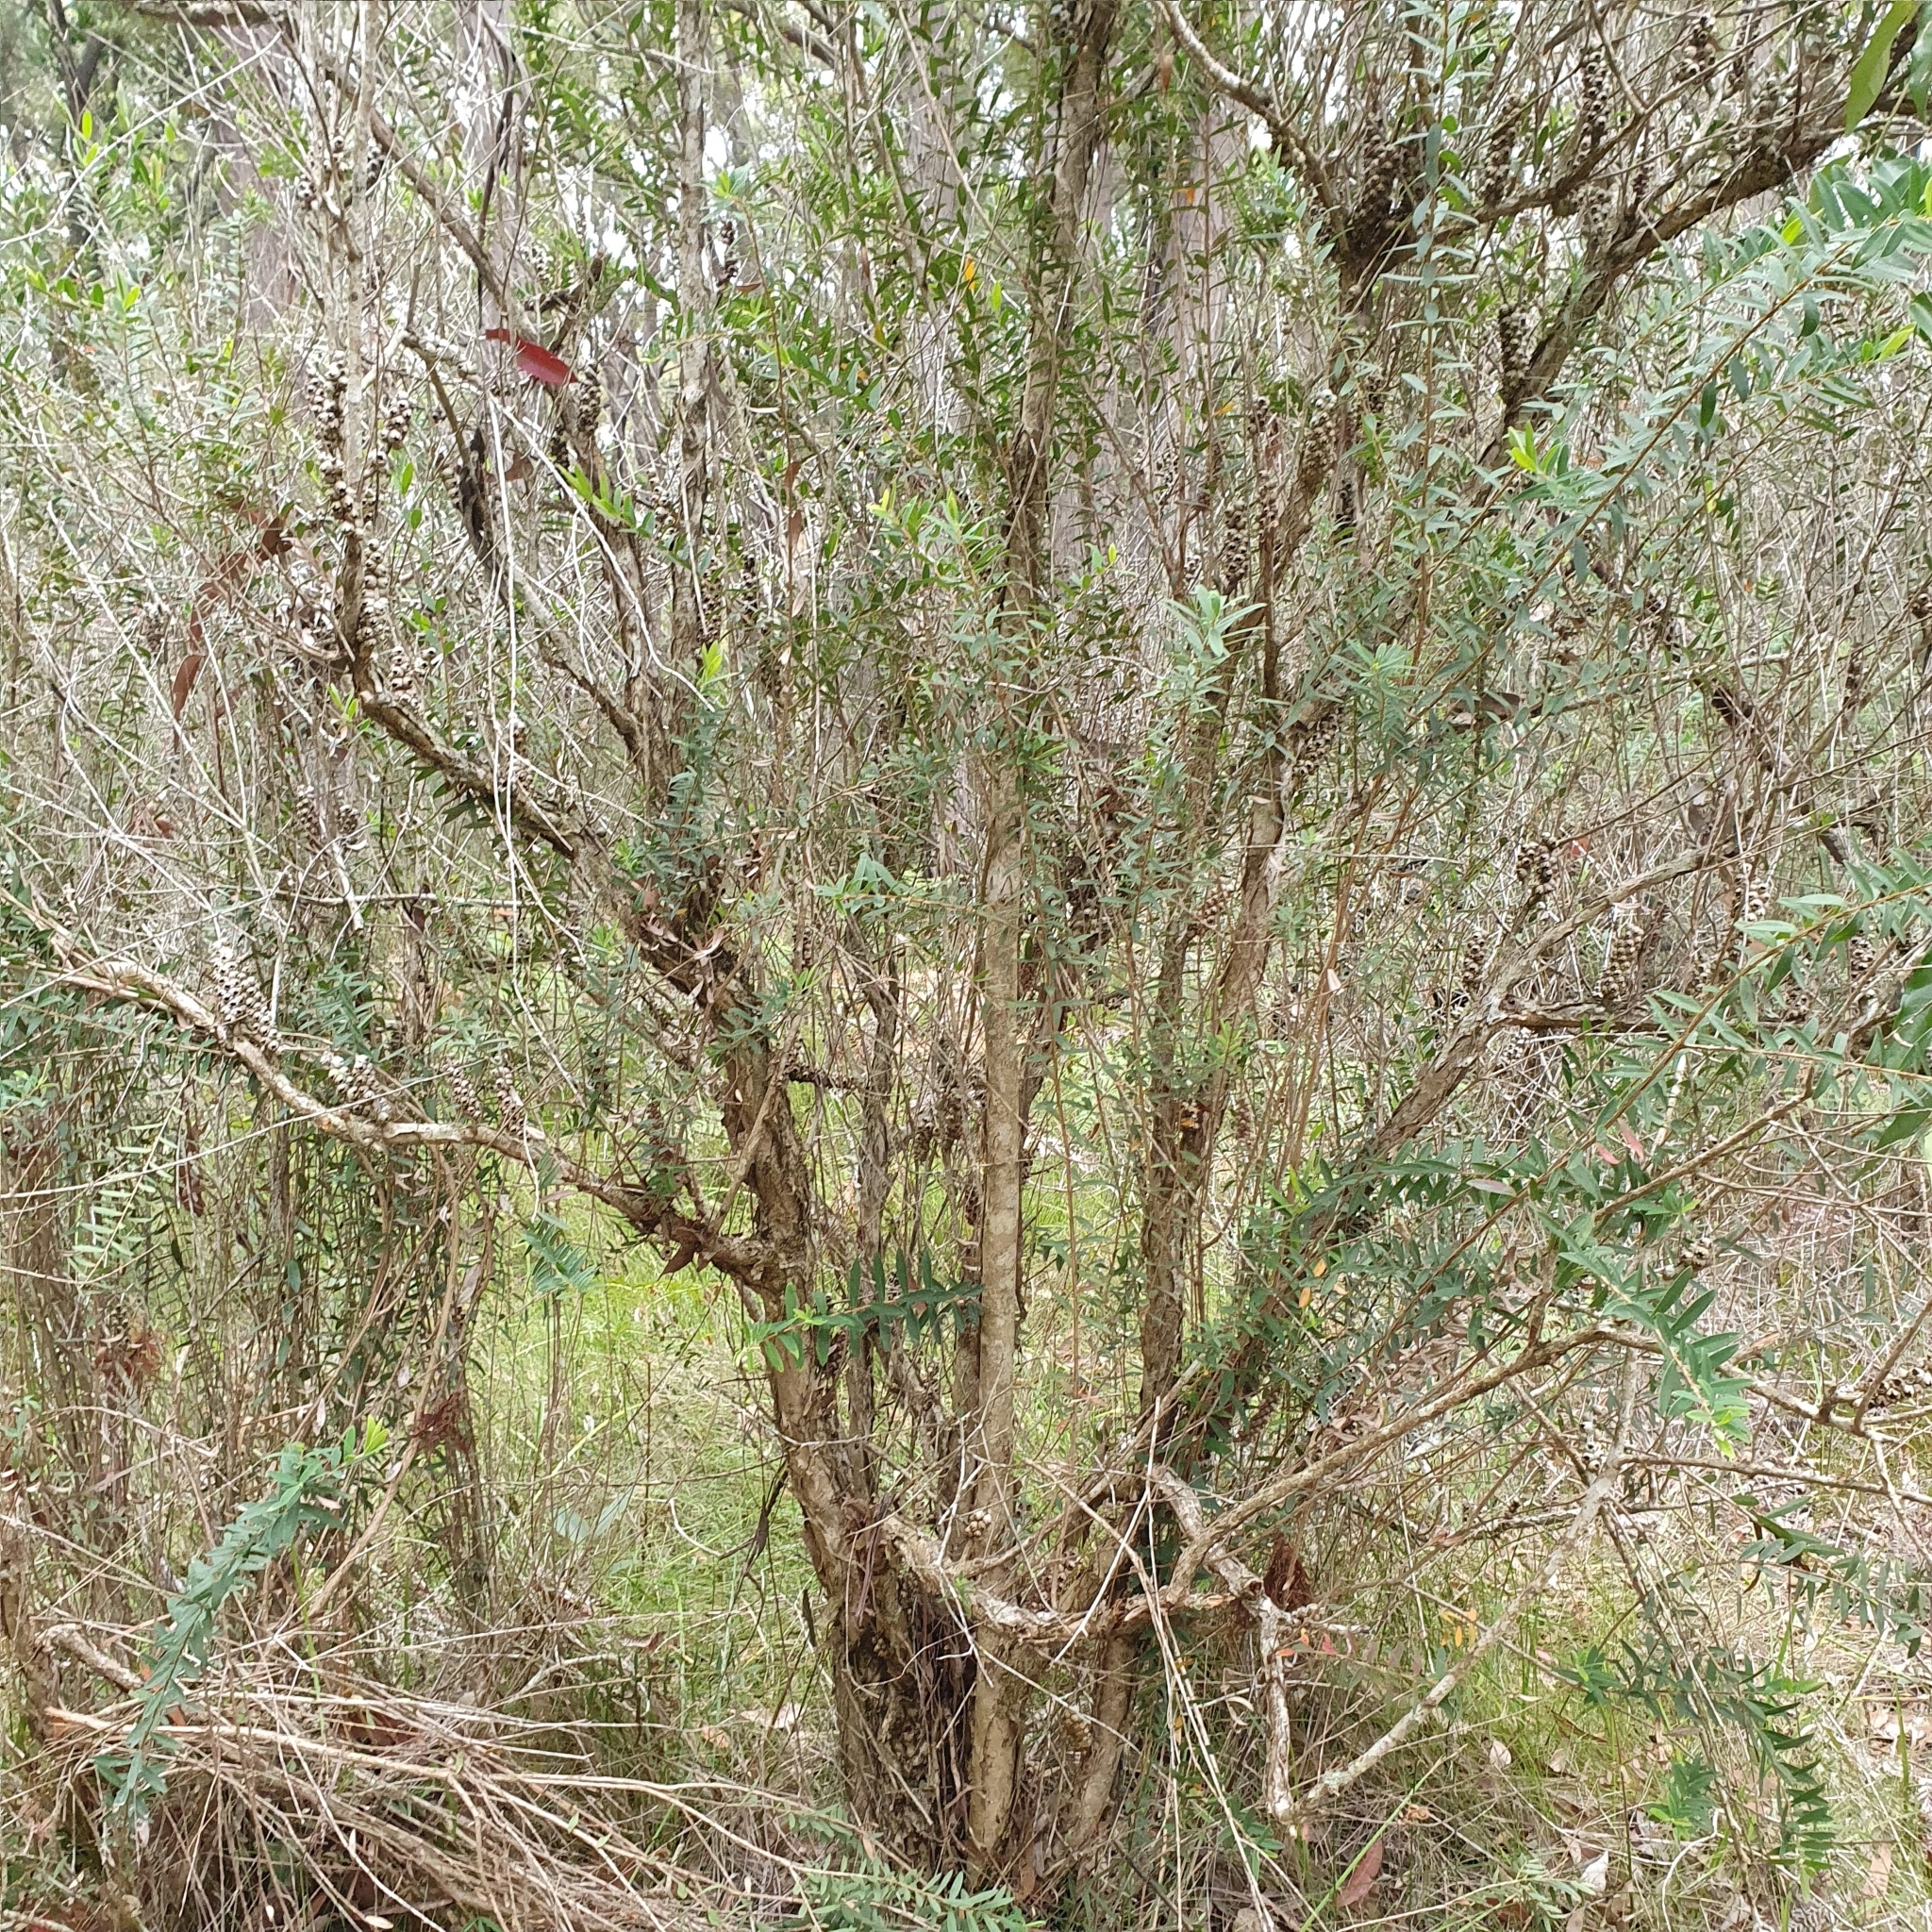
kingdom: Plantae
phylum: Tracheophyta
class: Magnoliopsida
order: Myrtales
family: Myrtaceae
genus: Melaleuca
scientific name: Melaleuca hypericifolia
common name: Red honey myrtle
